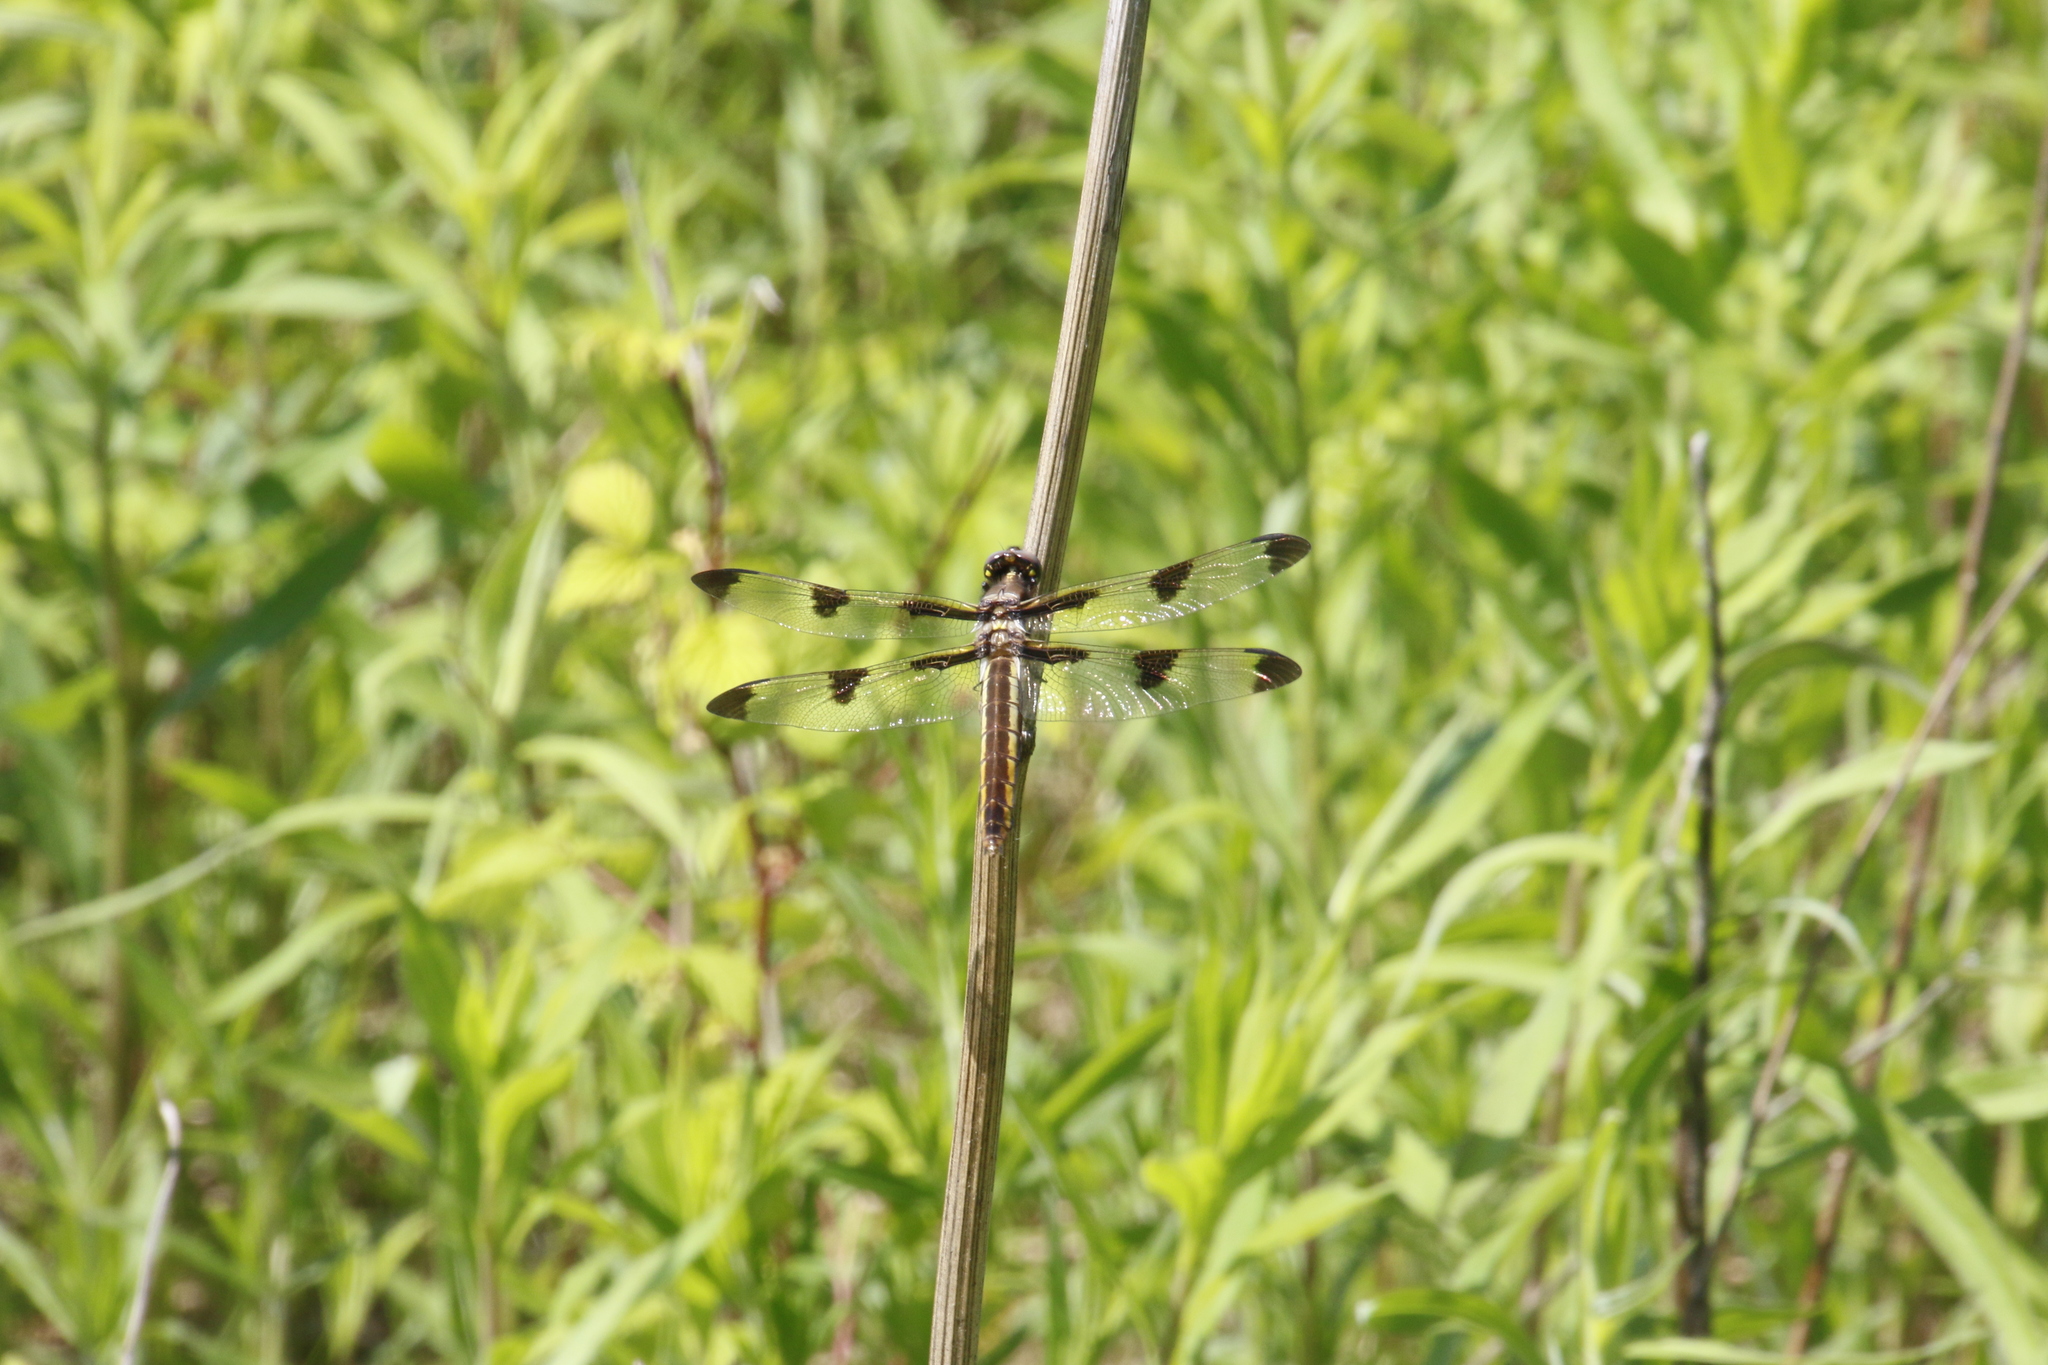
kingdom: Animalia
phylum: Arthropoda
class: Insecta
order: Odonata
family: Libellulidae
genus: Libellula
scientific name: Libellula pulchella
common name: Twelve-spotted skimmer
